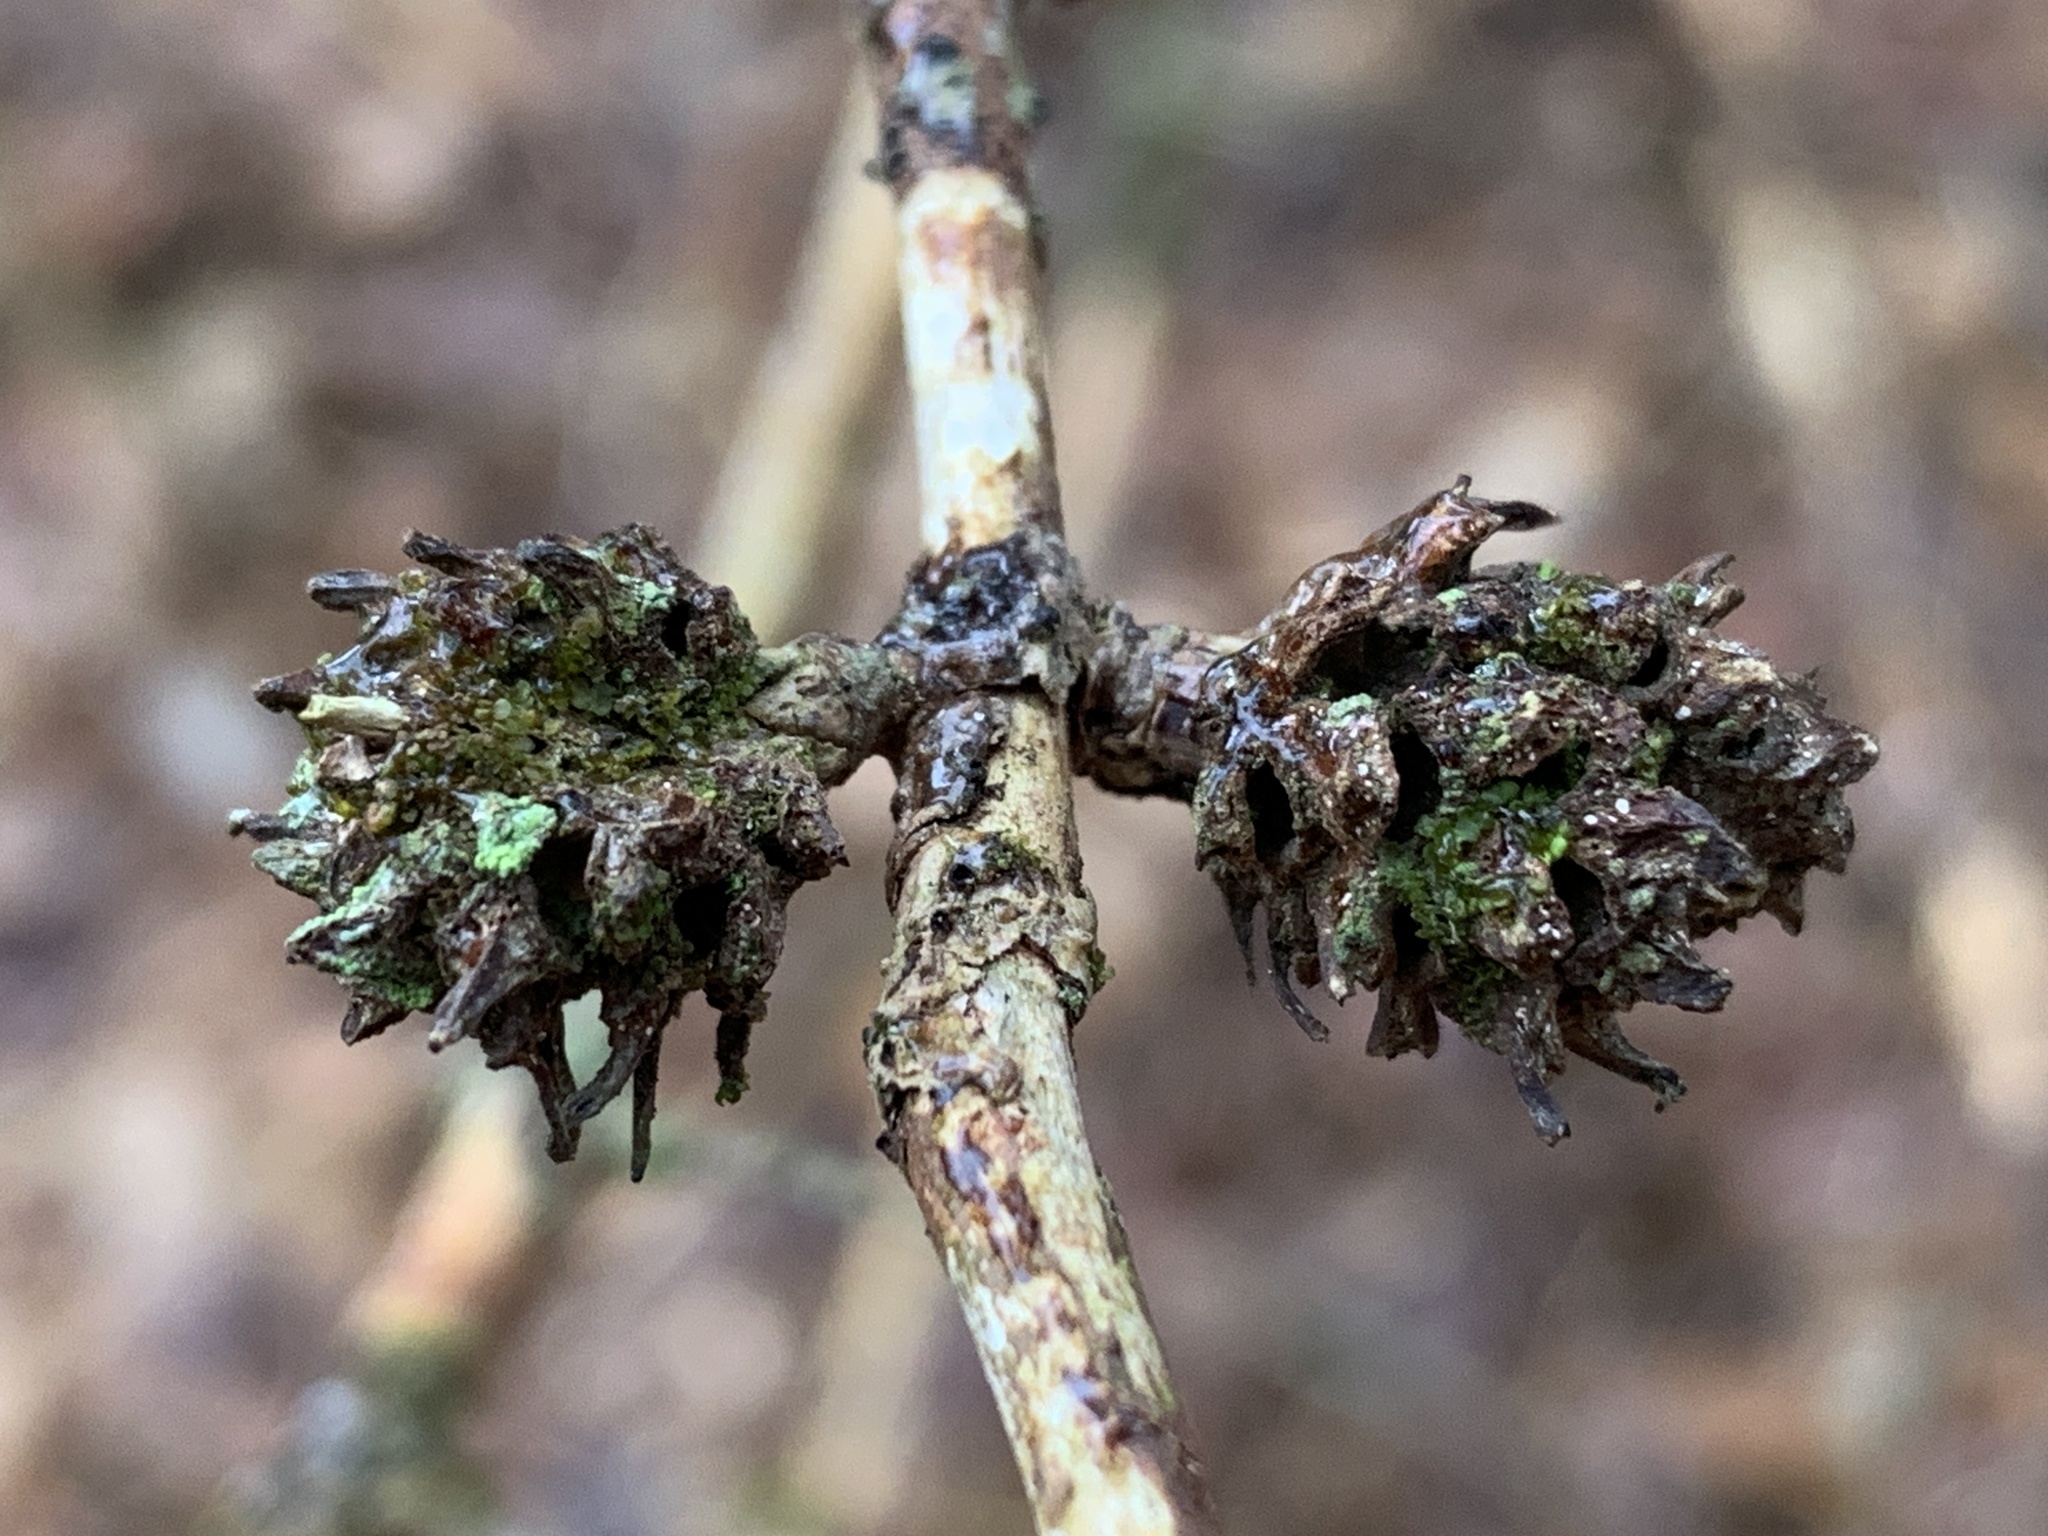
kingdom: Animalia
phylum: Arthropoda
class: Insecta
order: Hemiptera
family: Adelgidae
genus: Adelges
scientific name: Adelges abietis
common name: Eastern spruce gall adelgid
